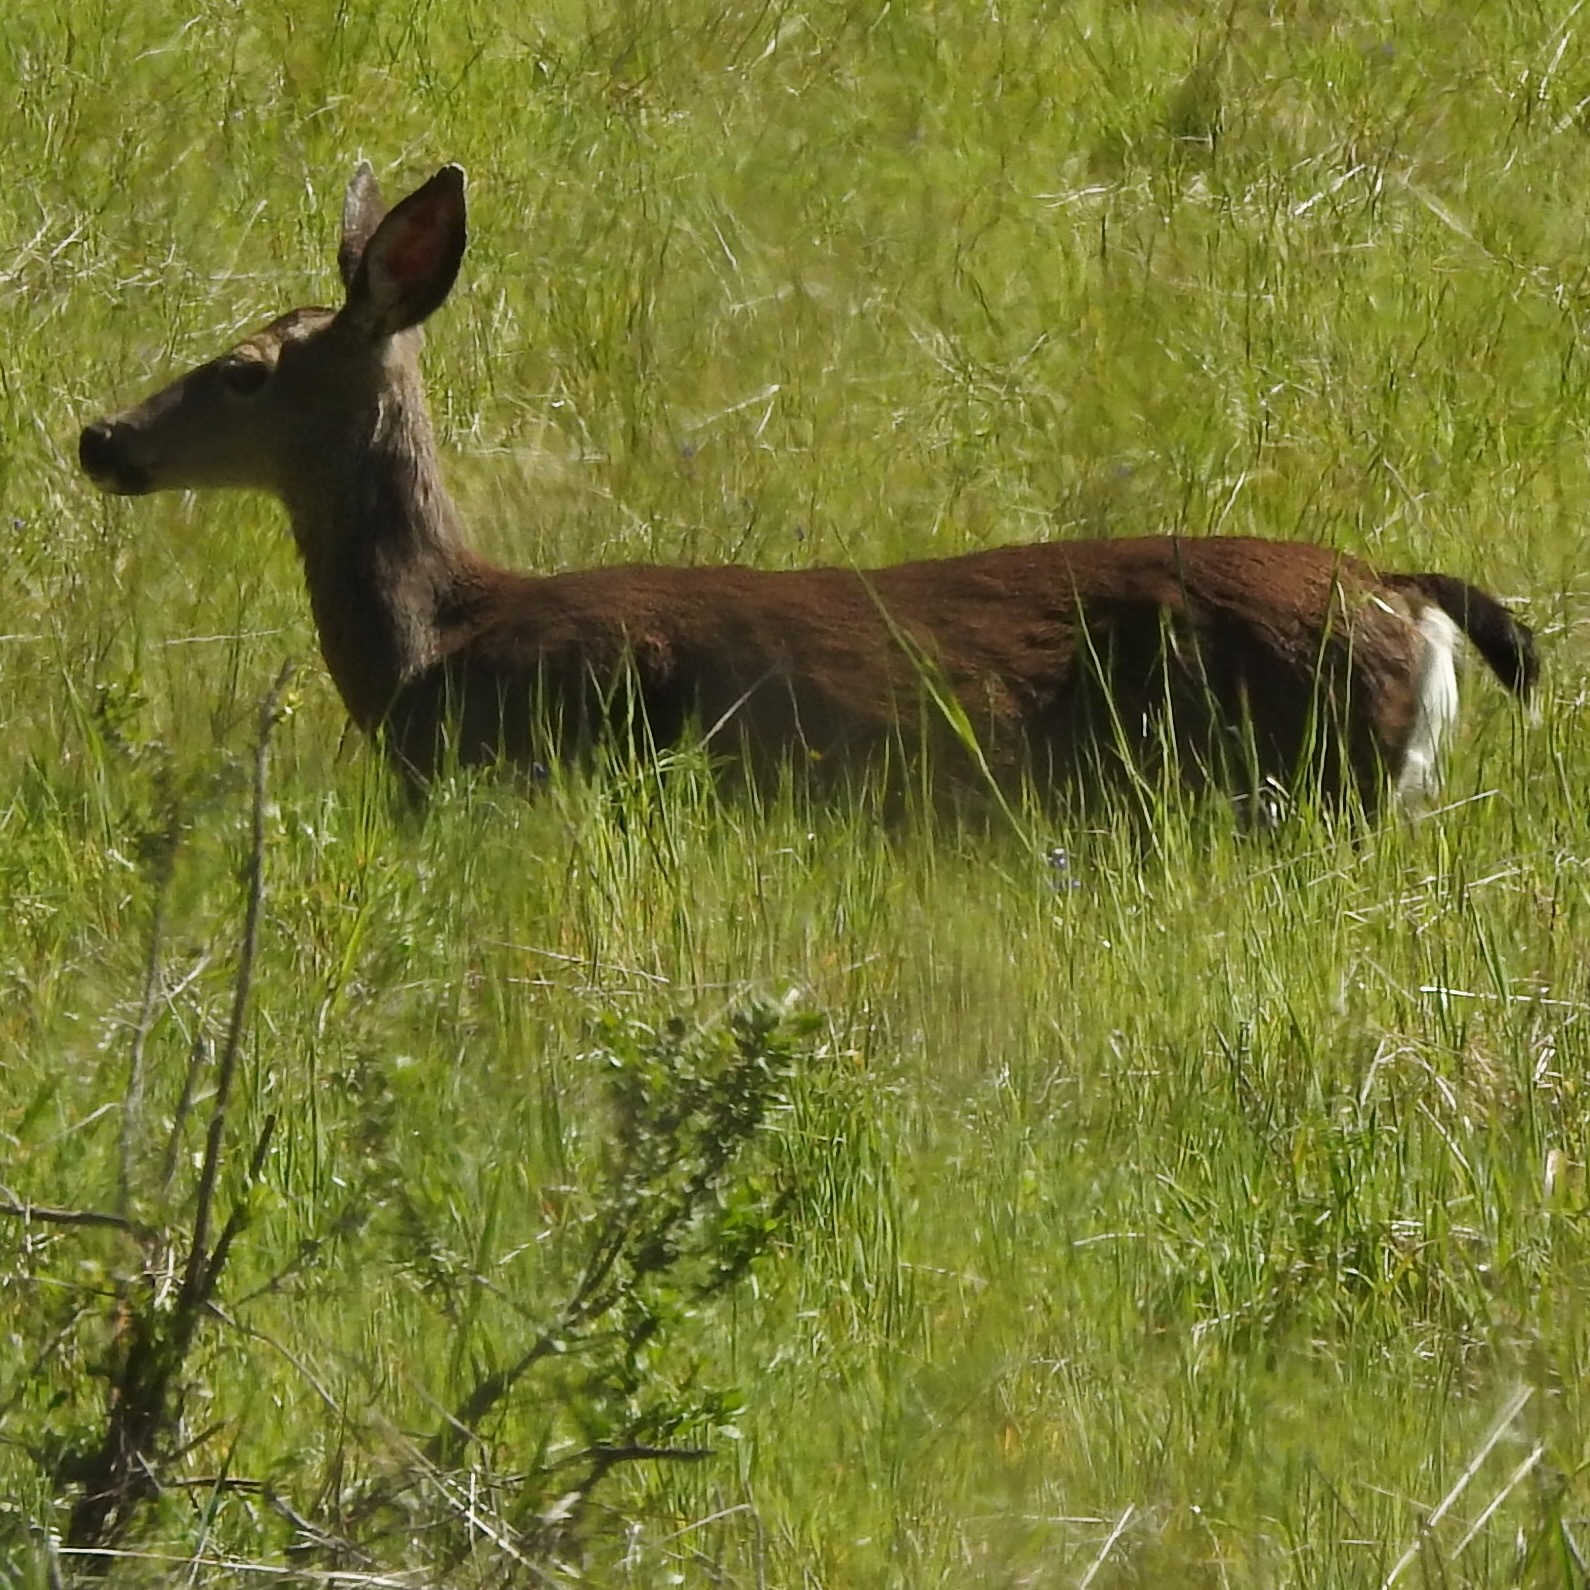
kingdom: Animalia
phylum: Chordata
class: Mammalia
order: Artiodactyla
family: Cervidae
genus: Odocoileus
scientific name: Odocoileus hemionus
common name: Mule deer
